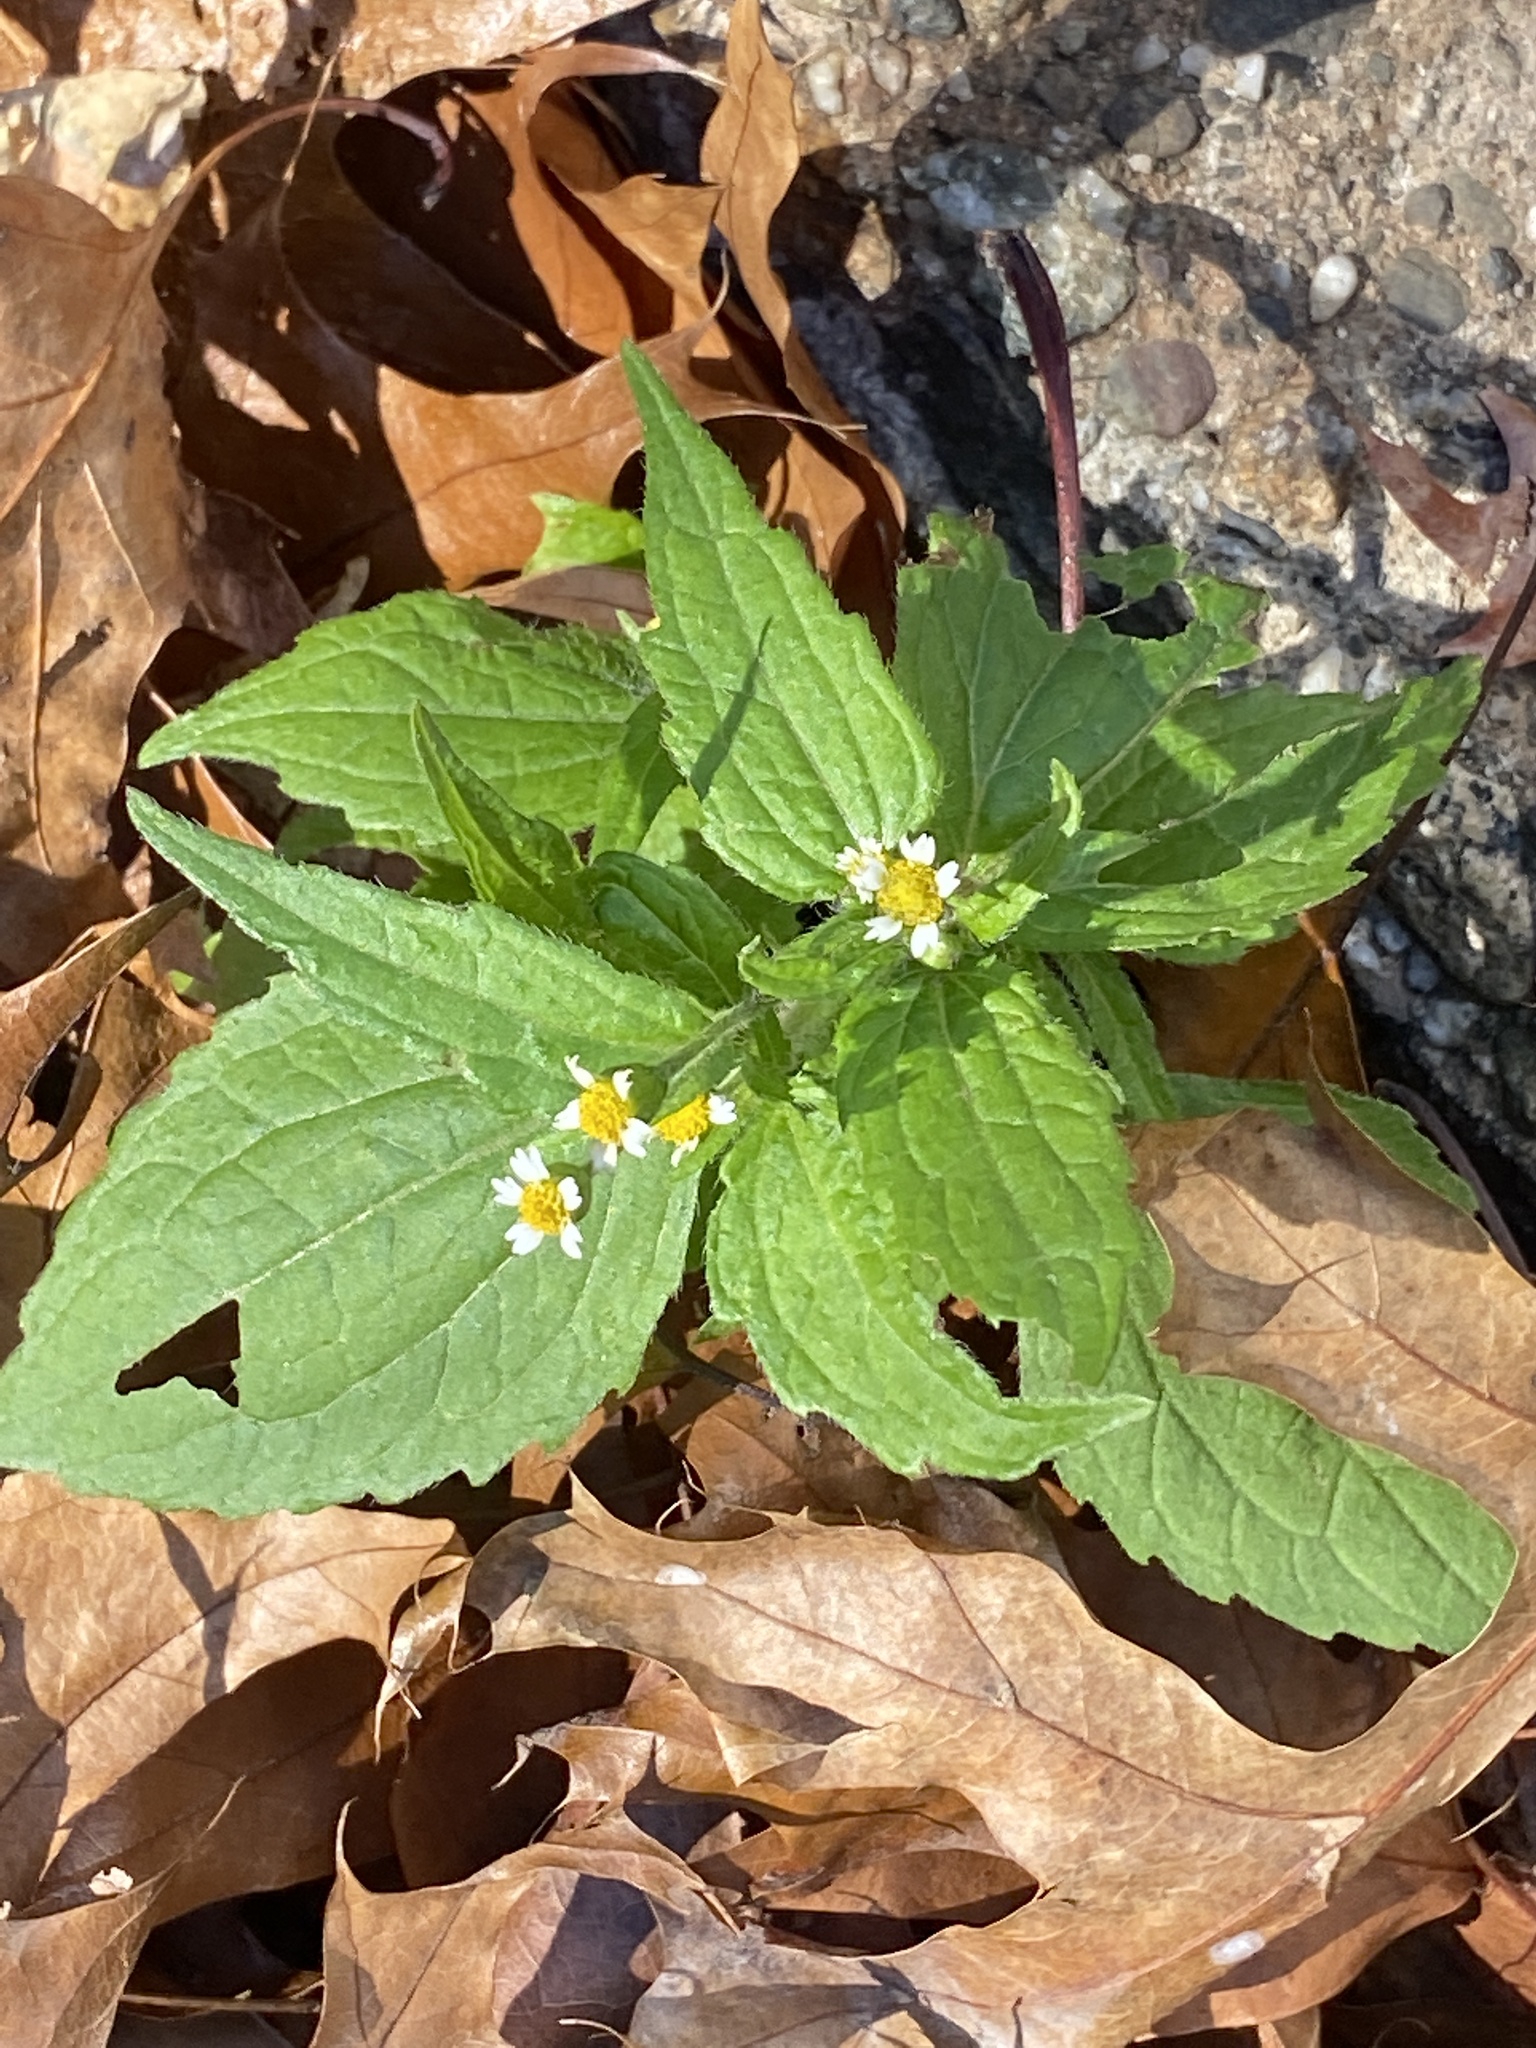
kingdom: Plantae
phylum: Tracheophyta
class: Magnoliopsida
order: Asterales
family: Asteraceae
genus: Galinsoga
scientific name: Galinsoga quadriradiata
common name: Shaggy soldier
